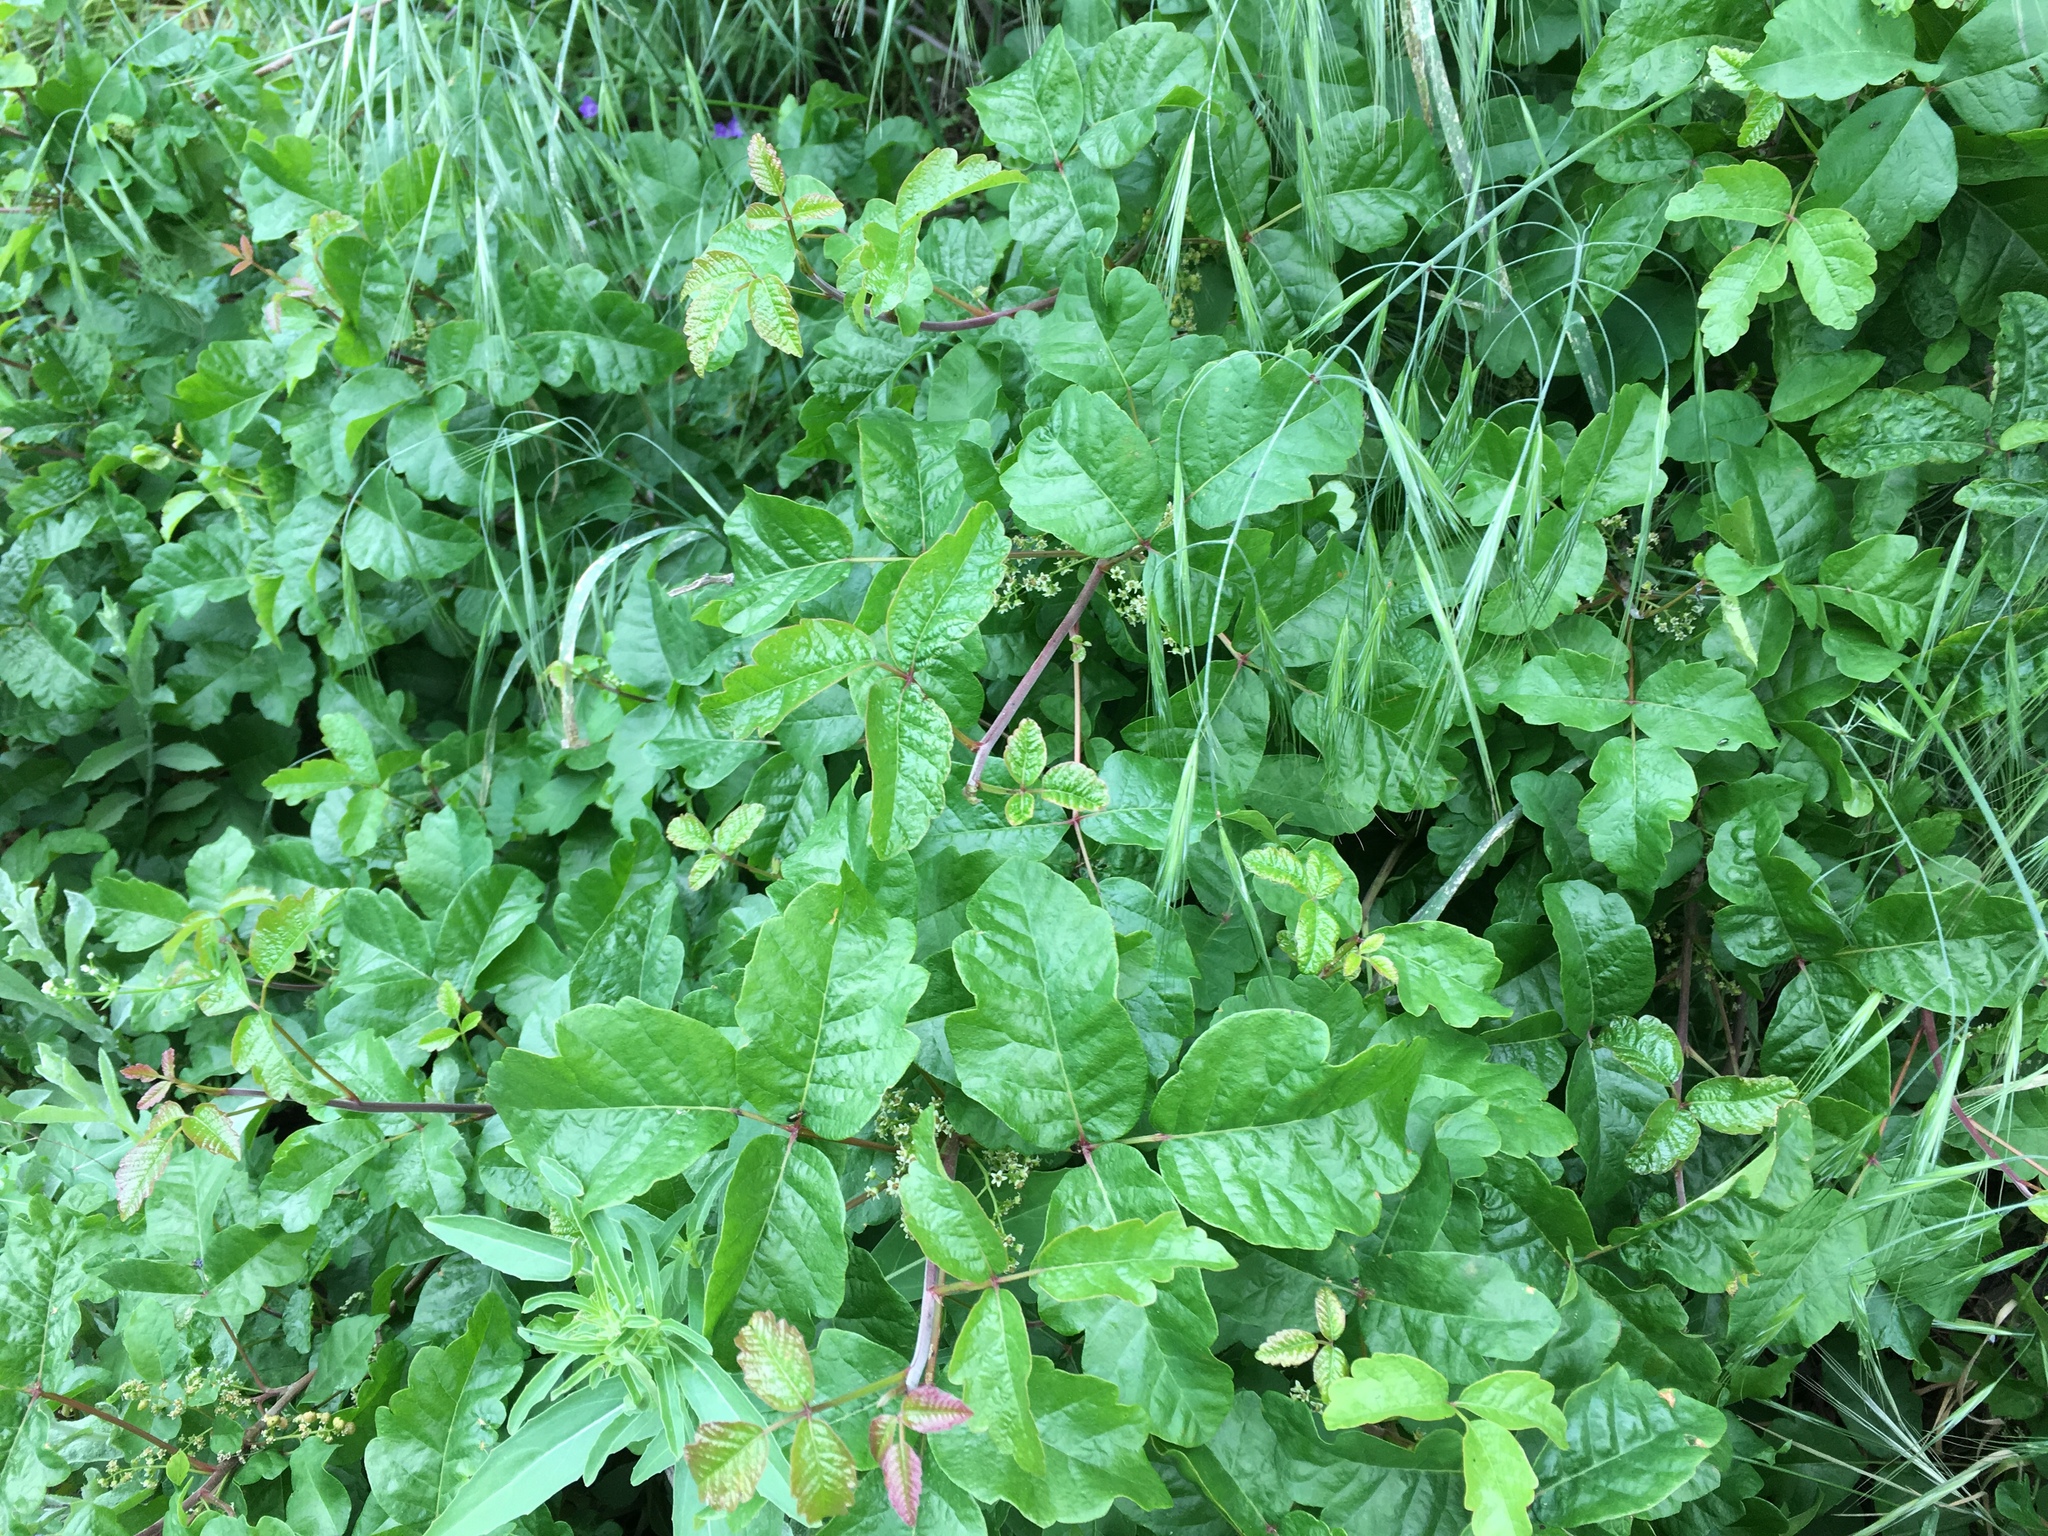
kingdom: Plantae
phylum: Tracheophyta
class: Magnoliopsida
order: Sapindales
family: Anacardiaceae
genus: Toxicodendron
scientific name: Toxicodendron diversilobum
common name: Pacific poison-oak
